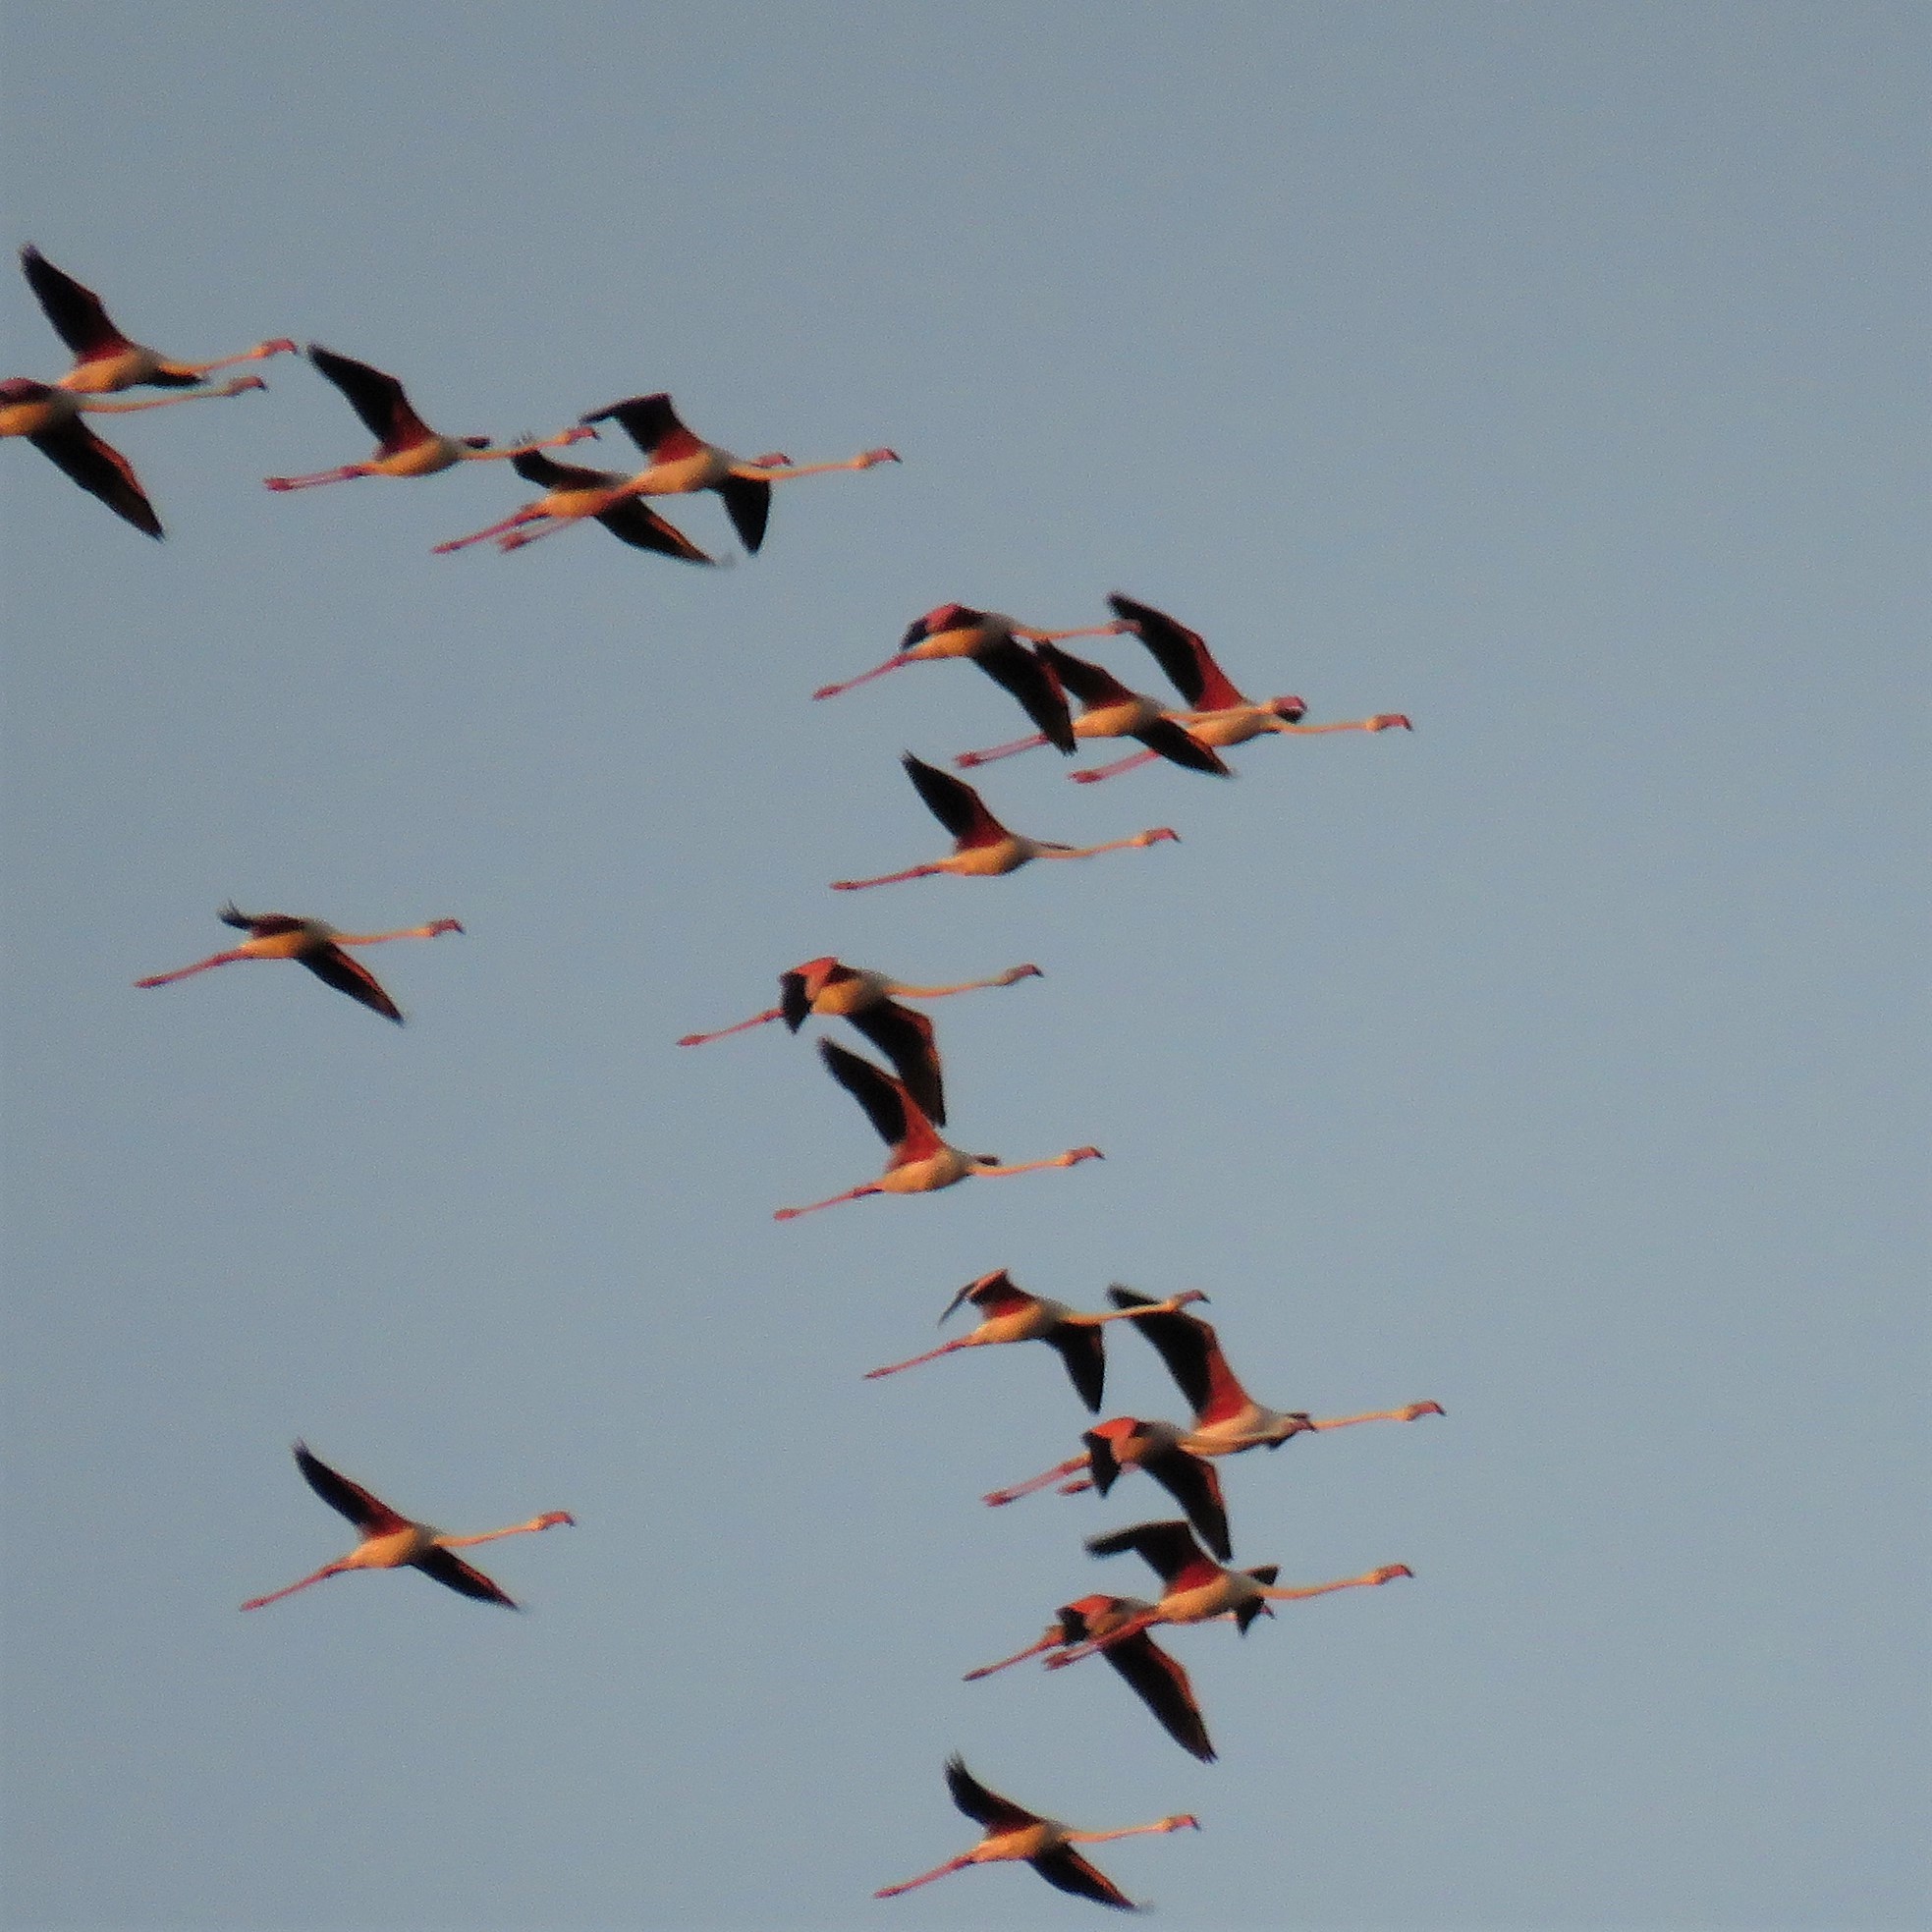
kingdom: Animalia
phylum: Chordata
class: Aves
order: Phoenicopteriformes
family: Phoenicopteridae
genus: Phoenicopterus
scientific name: Phoenicopterus roseus
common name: Greater flamingo
